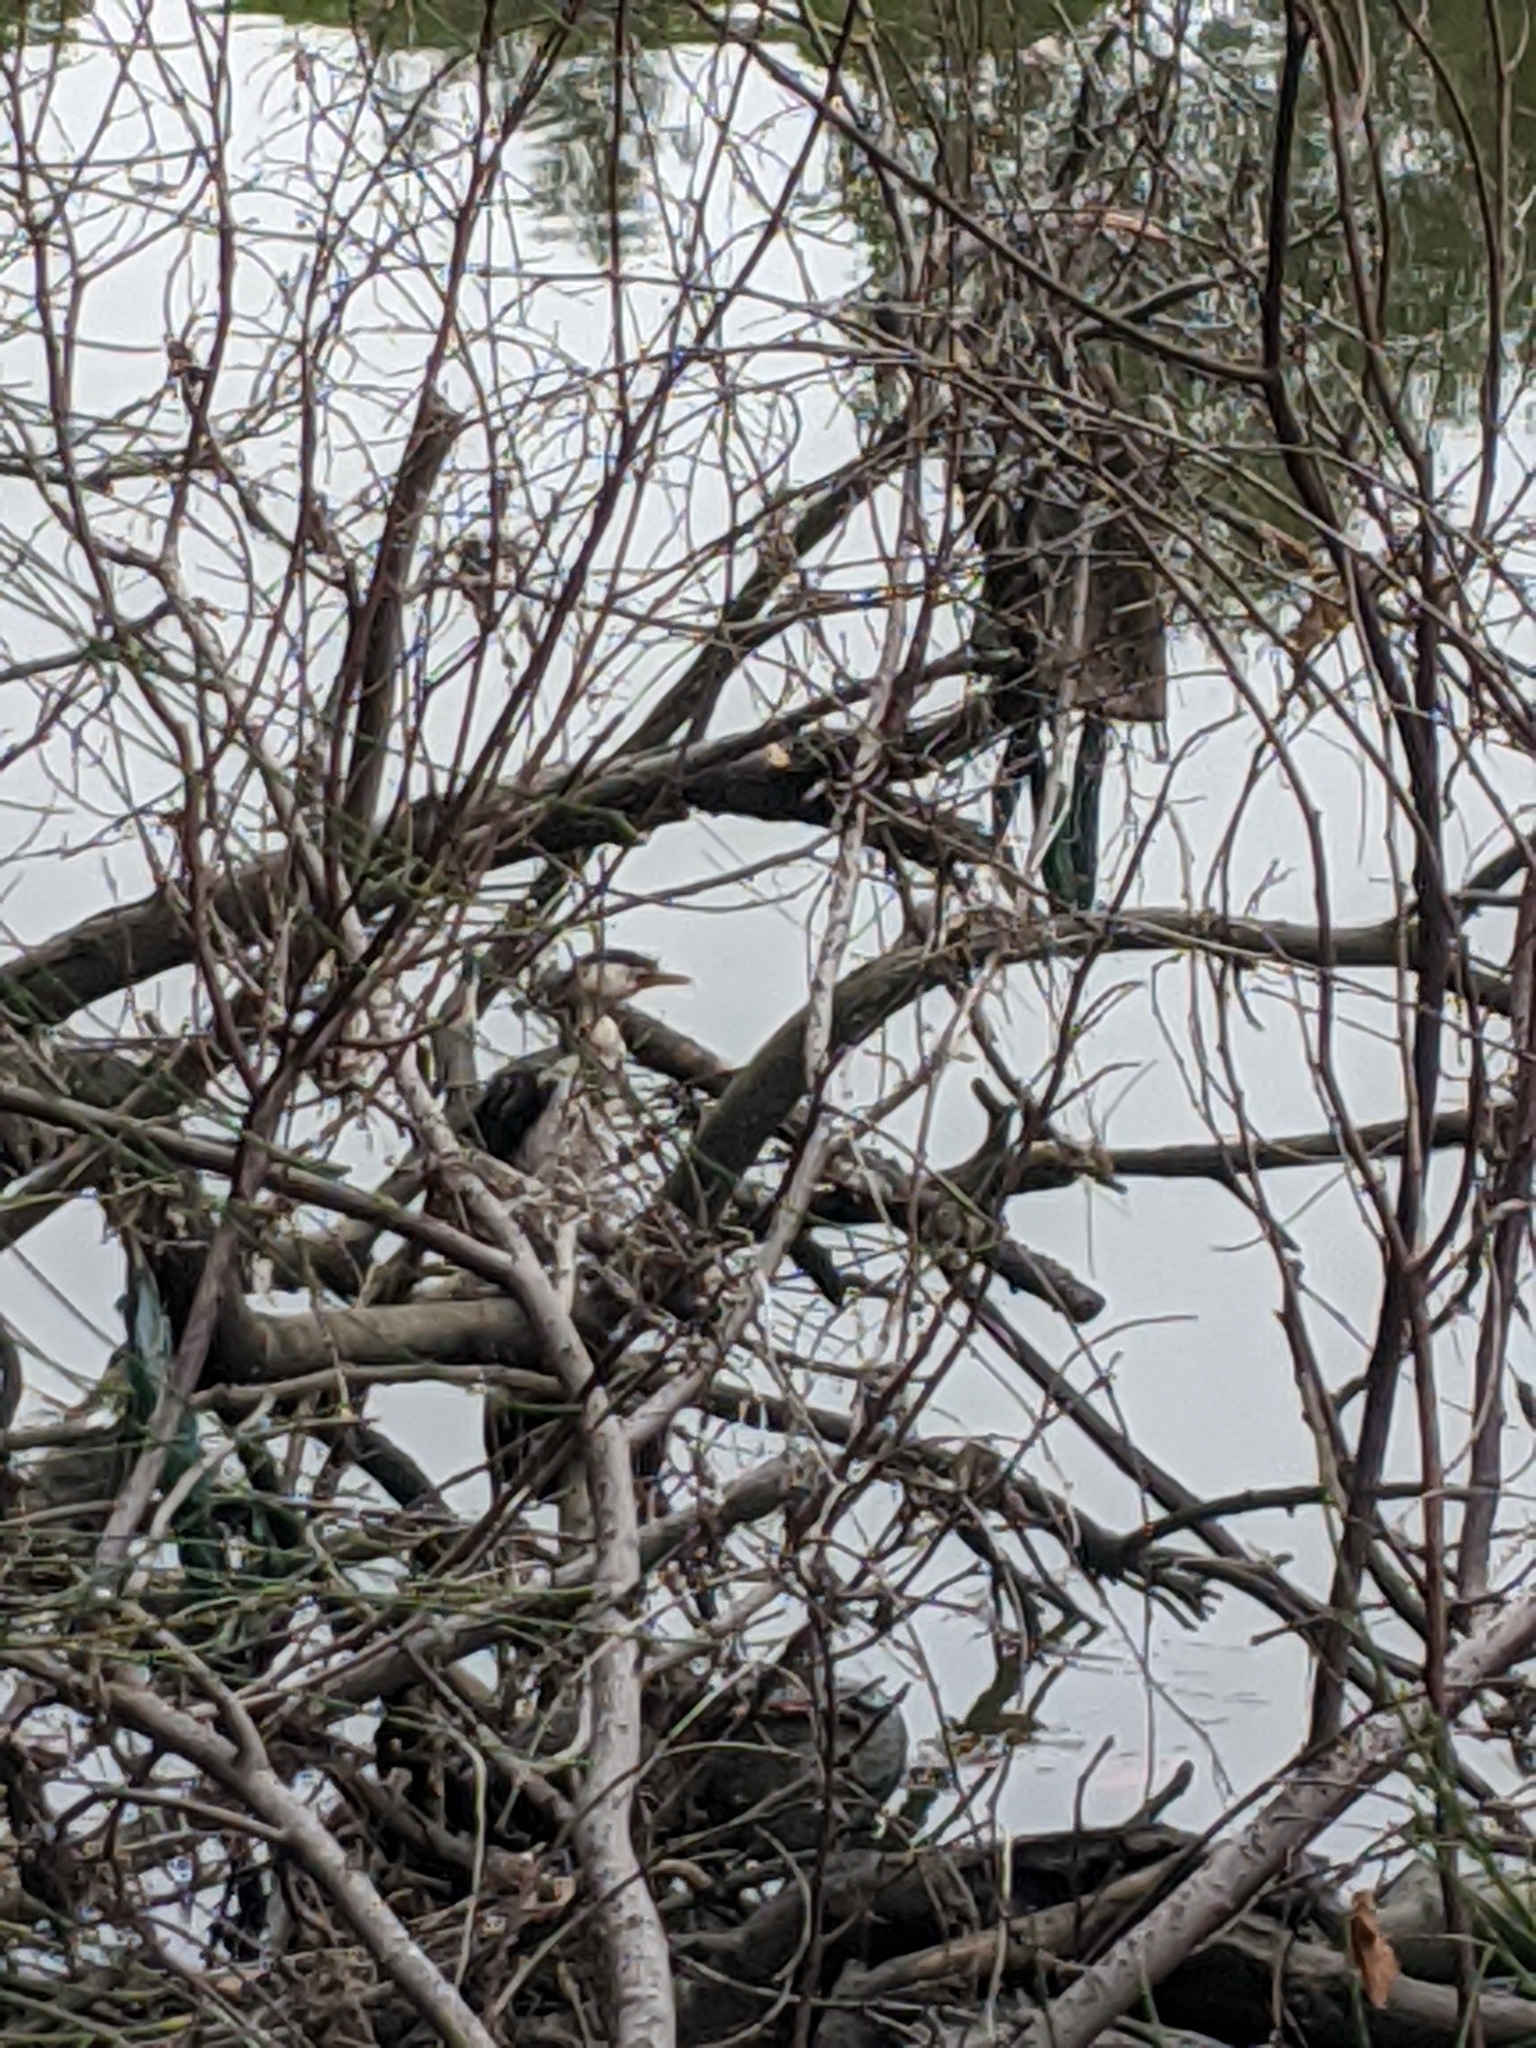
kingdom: Animalia
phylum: Chordata
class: Aves
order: Suliformes
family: Phalacrocoracidae
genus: Microcarbo
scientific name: Microcarbo melanoleucos
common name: Little pied cormorant
